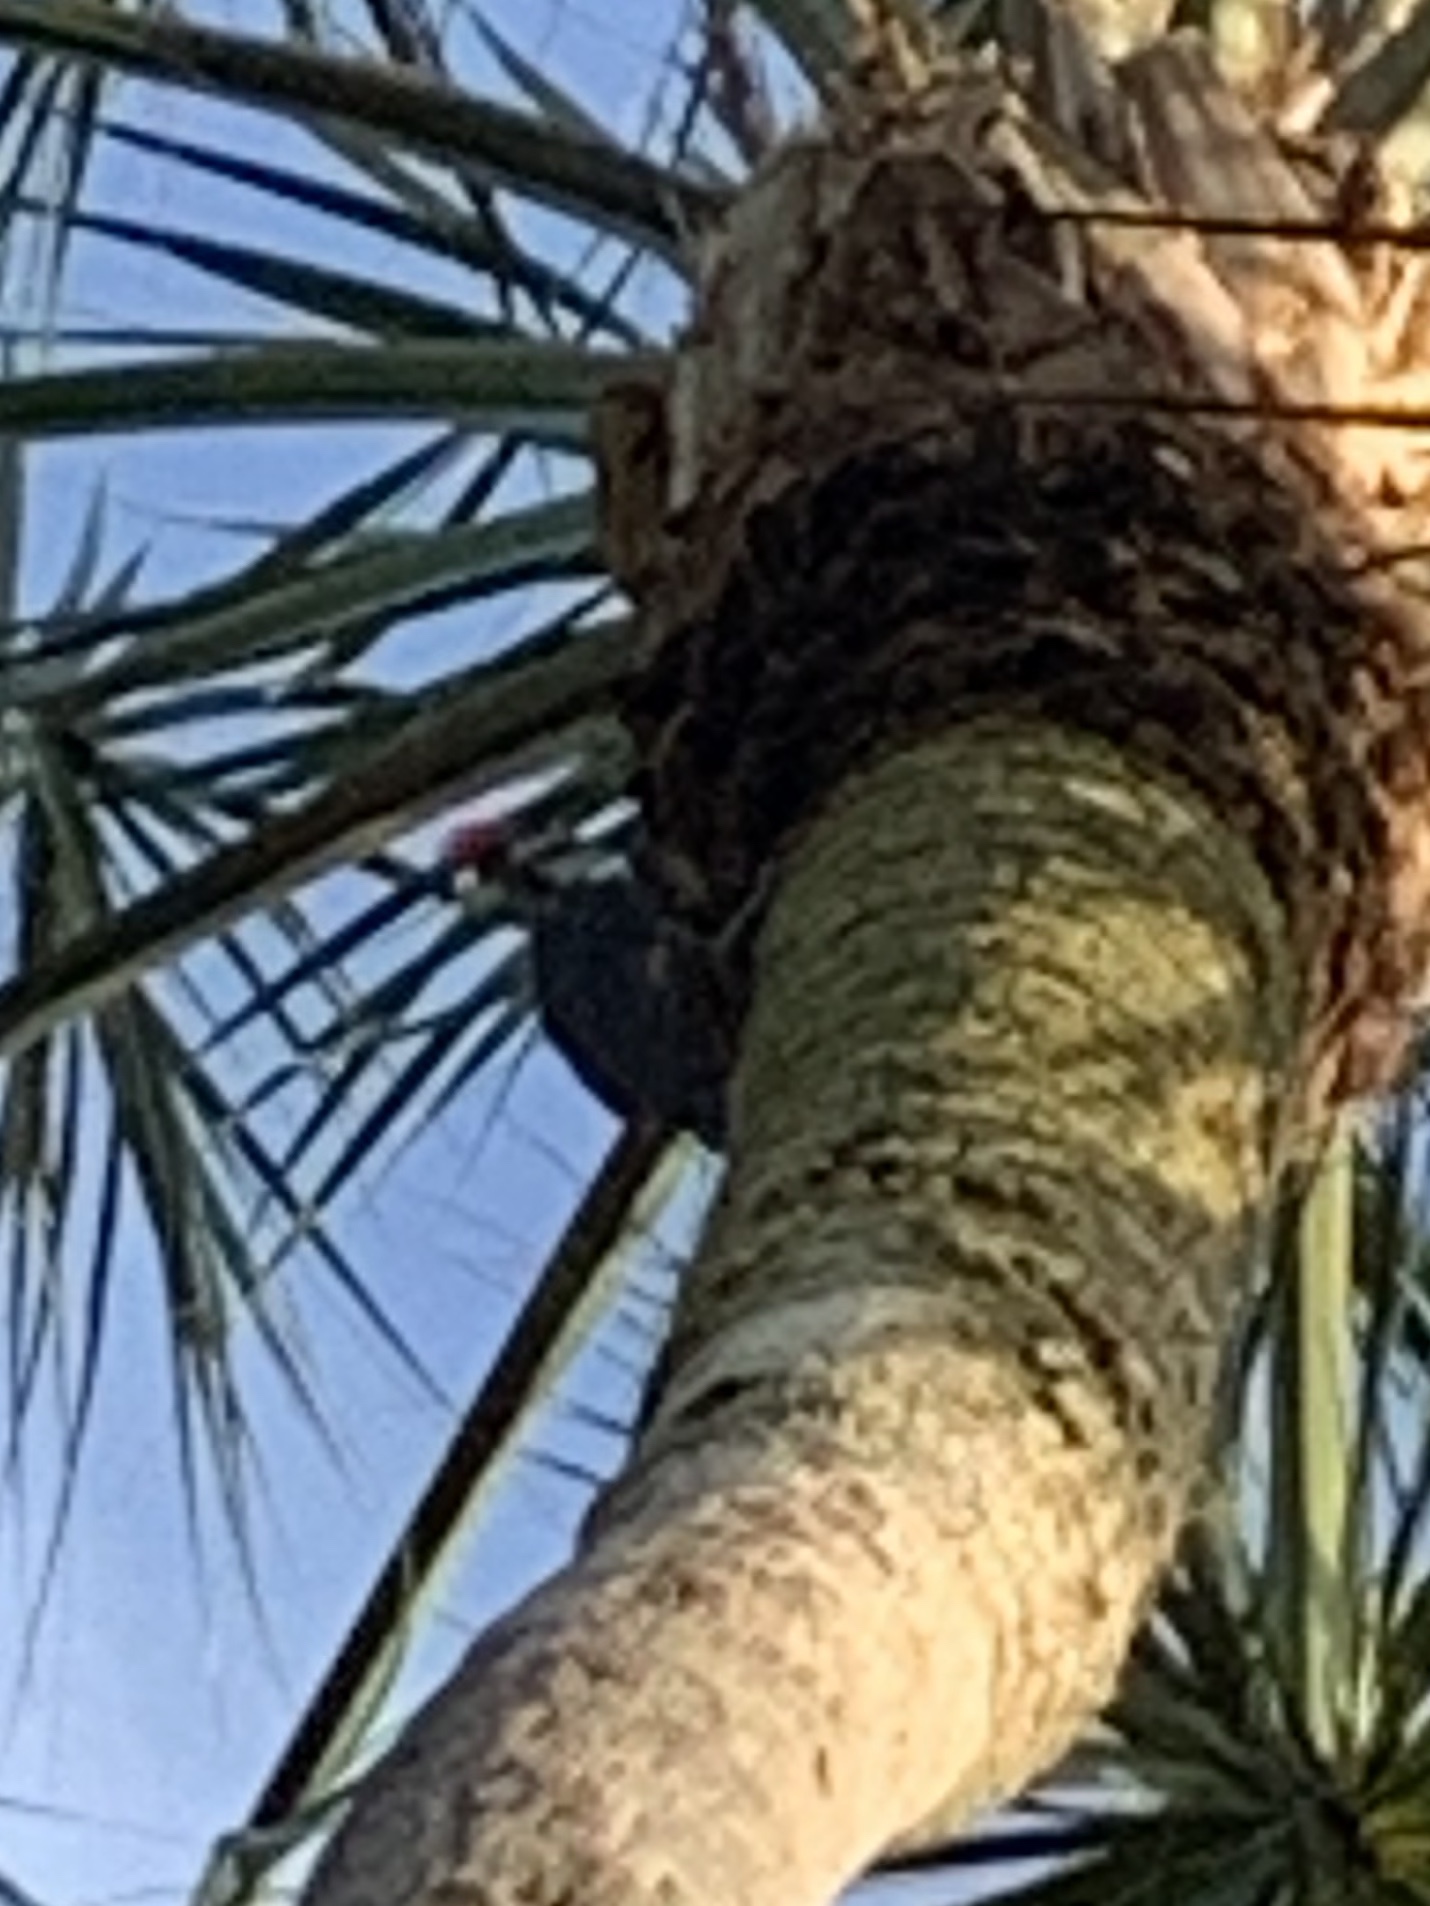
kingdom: Animalia
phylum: Chordata
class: Aves
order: Piciformes
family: Picidae
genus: Dryocopus
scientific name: Dryocopus pileatus
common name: Pileated woodpecker
